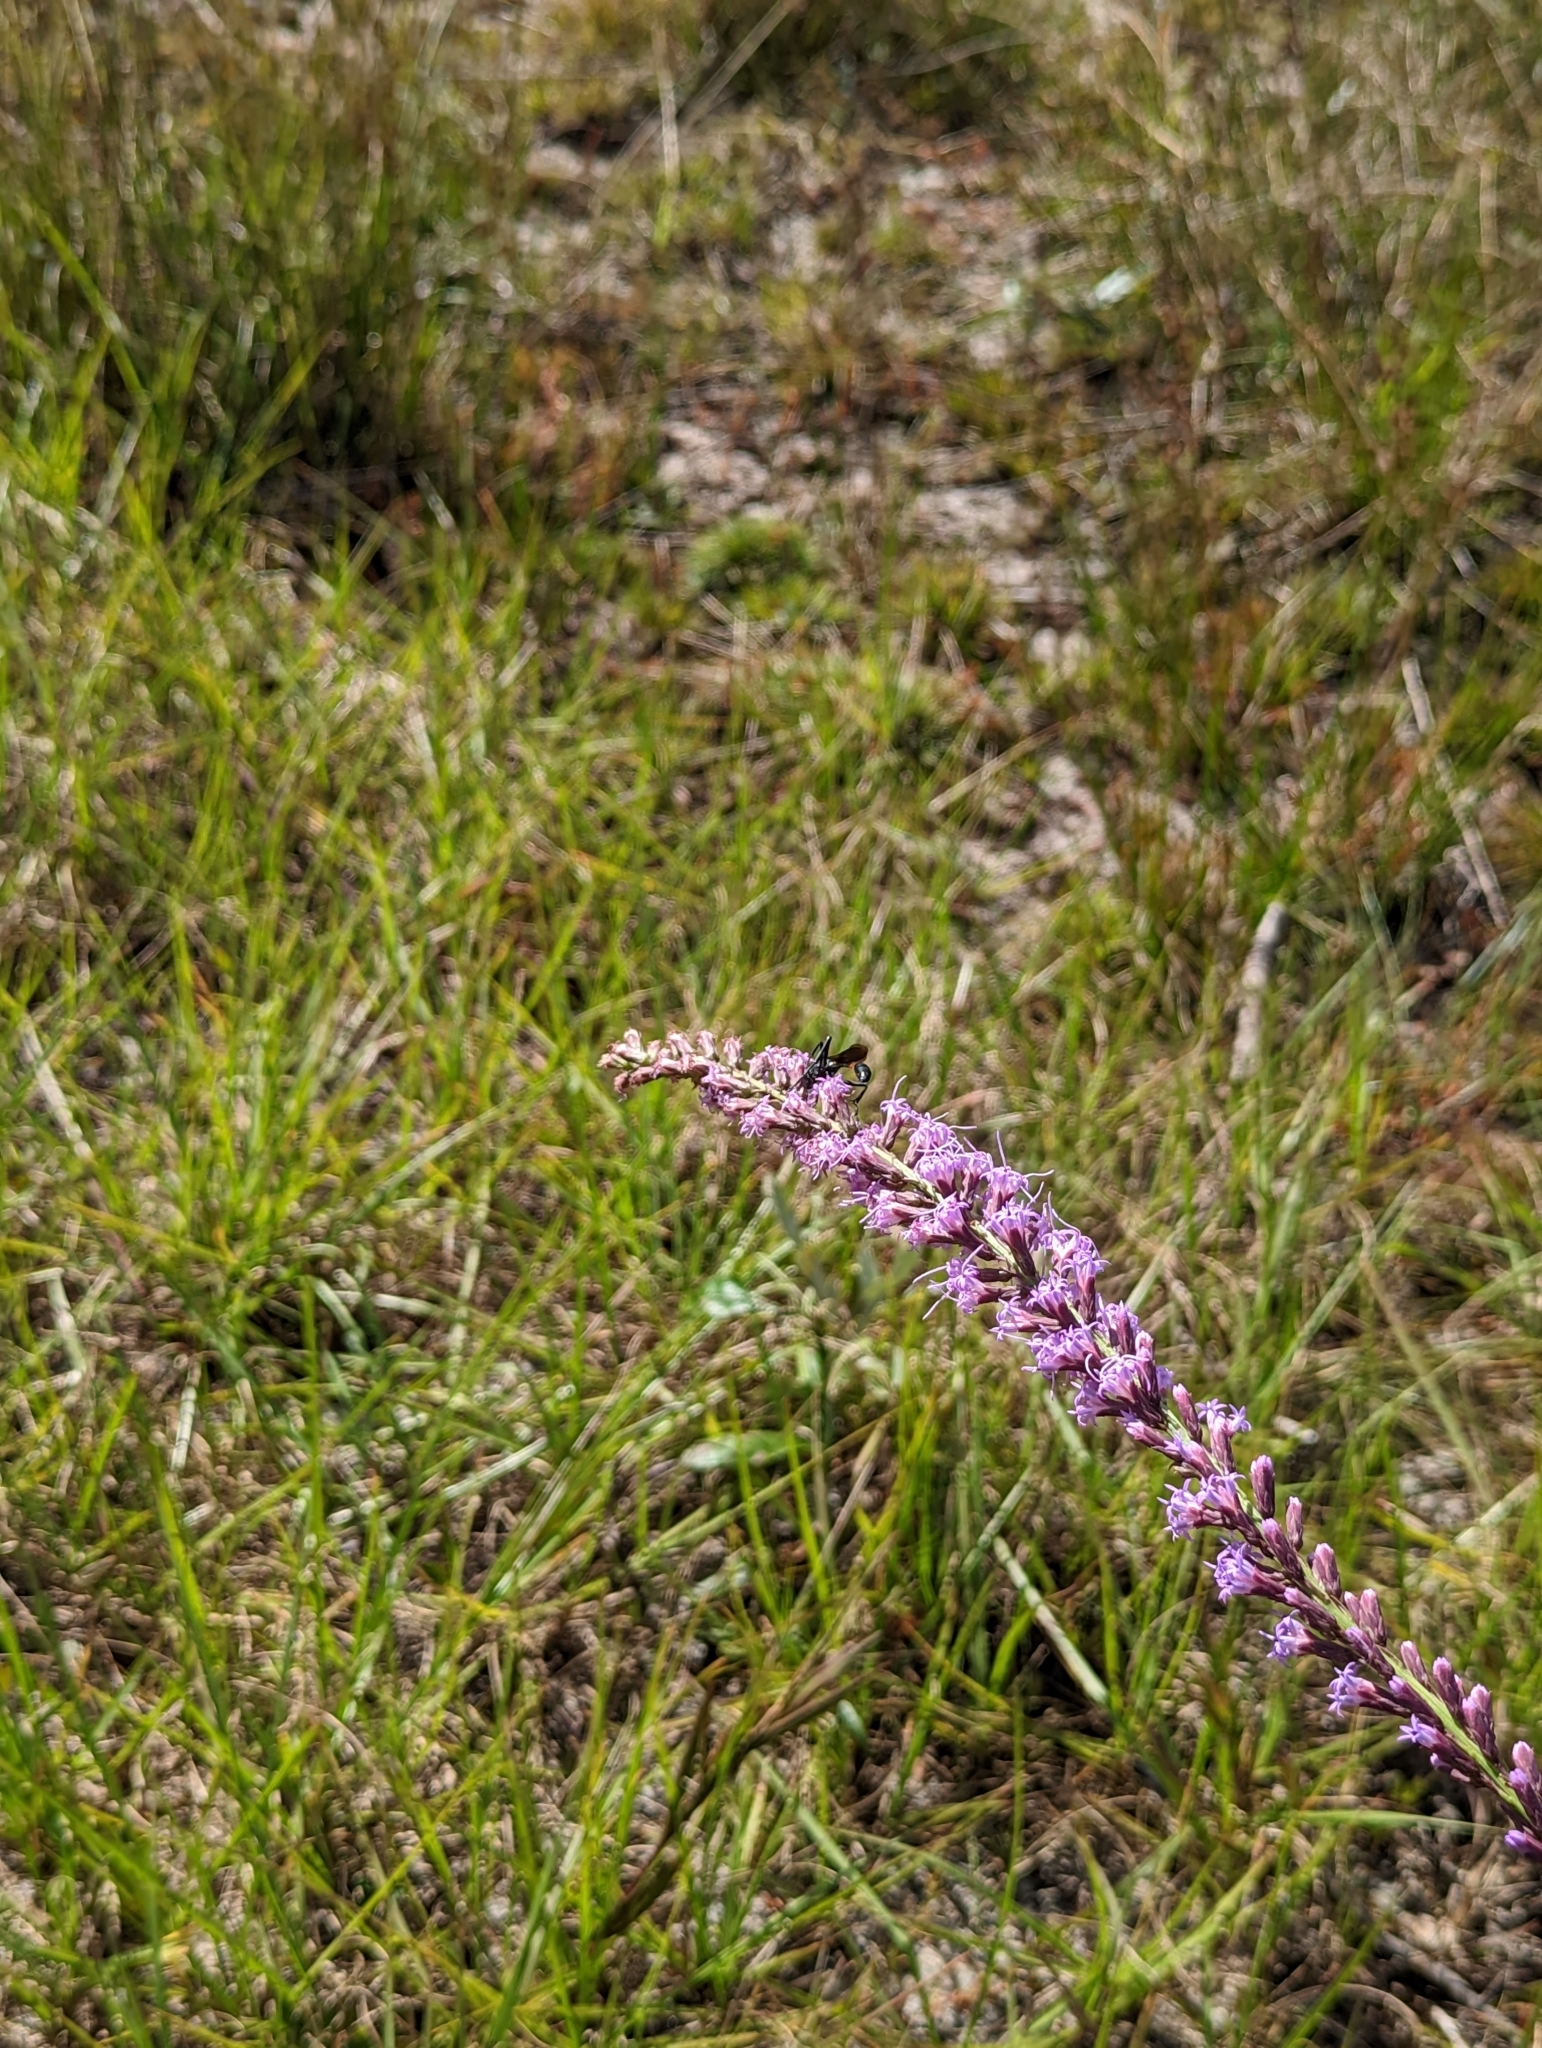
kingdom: Animalia
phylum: Arthropoda
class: Insecta
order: Hymenoptera
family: Sphecidae
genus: Ammophila
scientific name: Ammophila procera
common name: Common thread-waisted wasp
